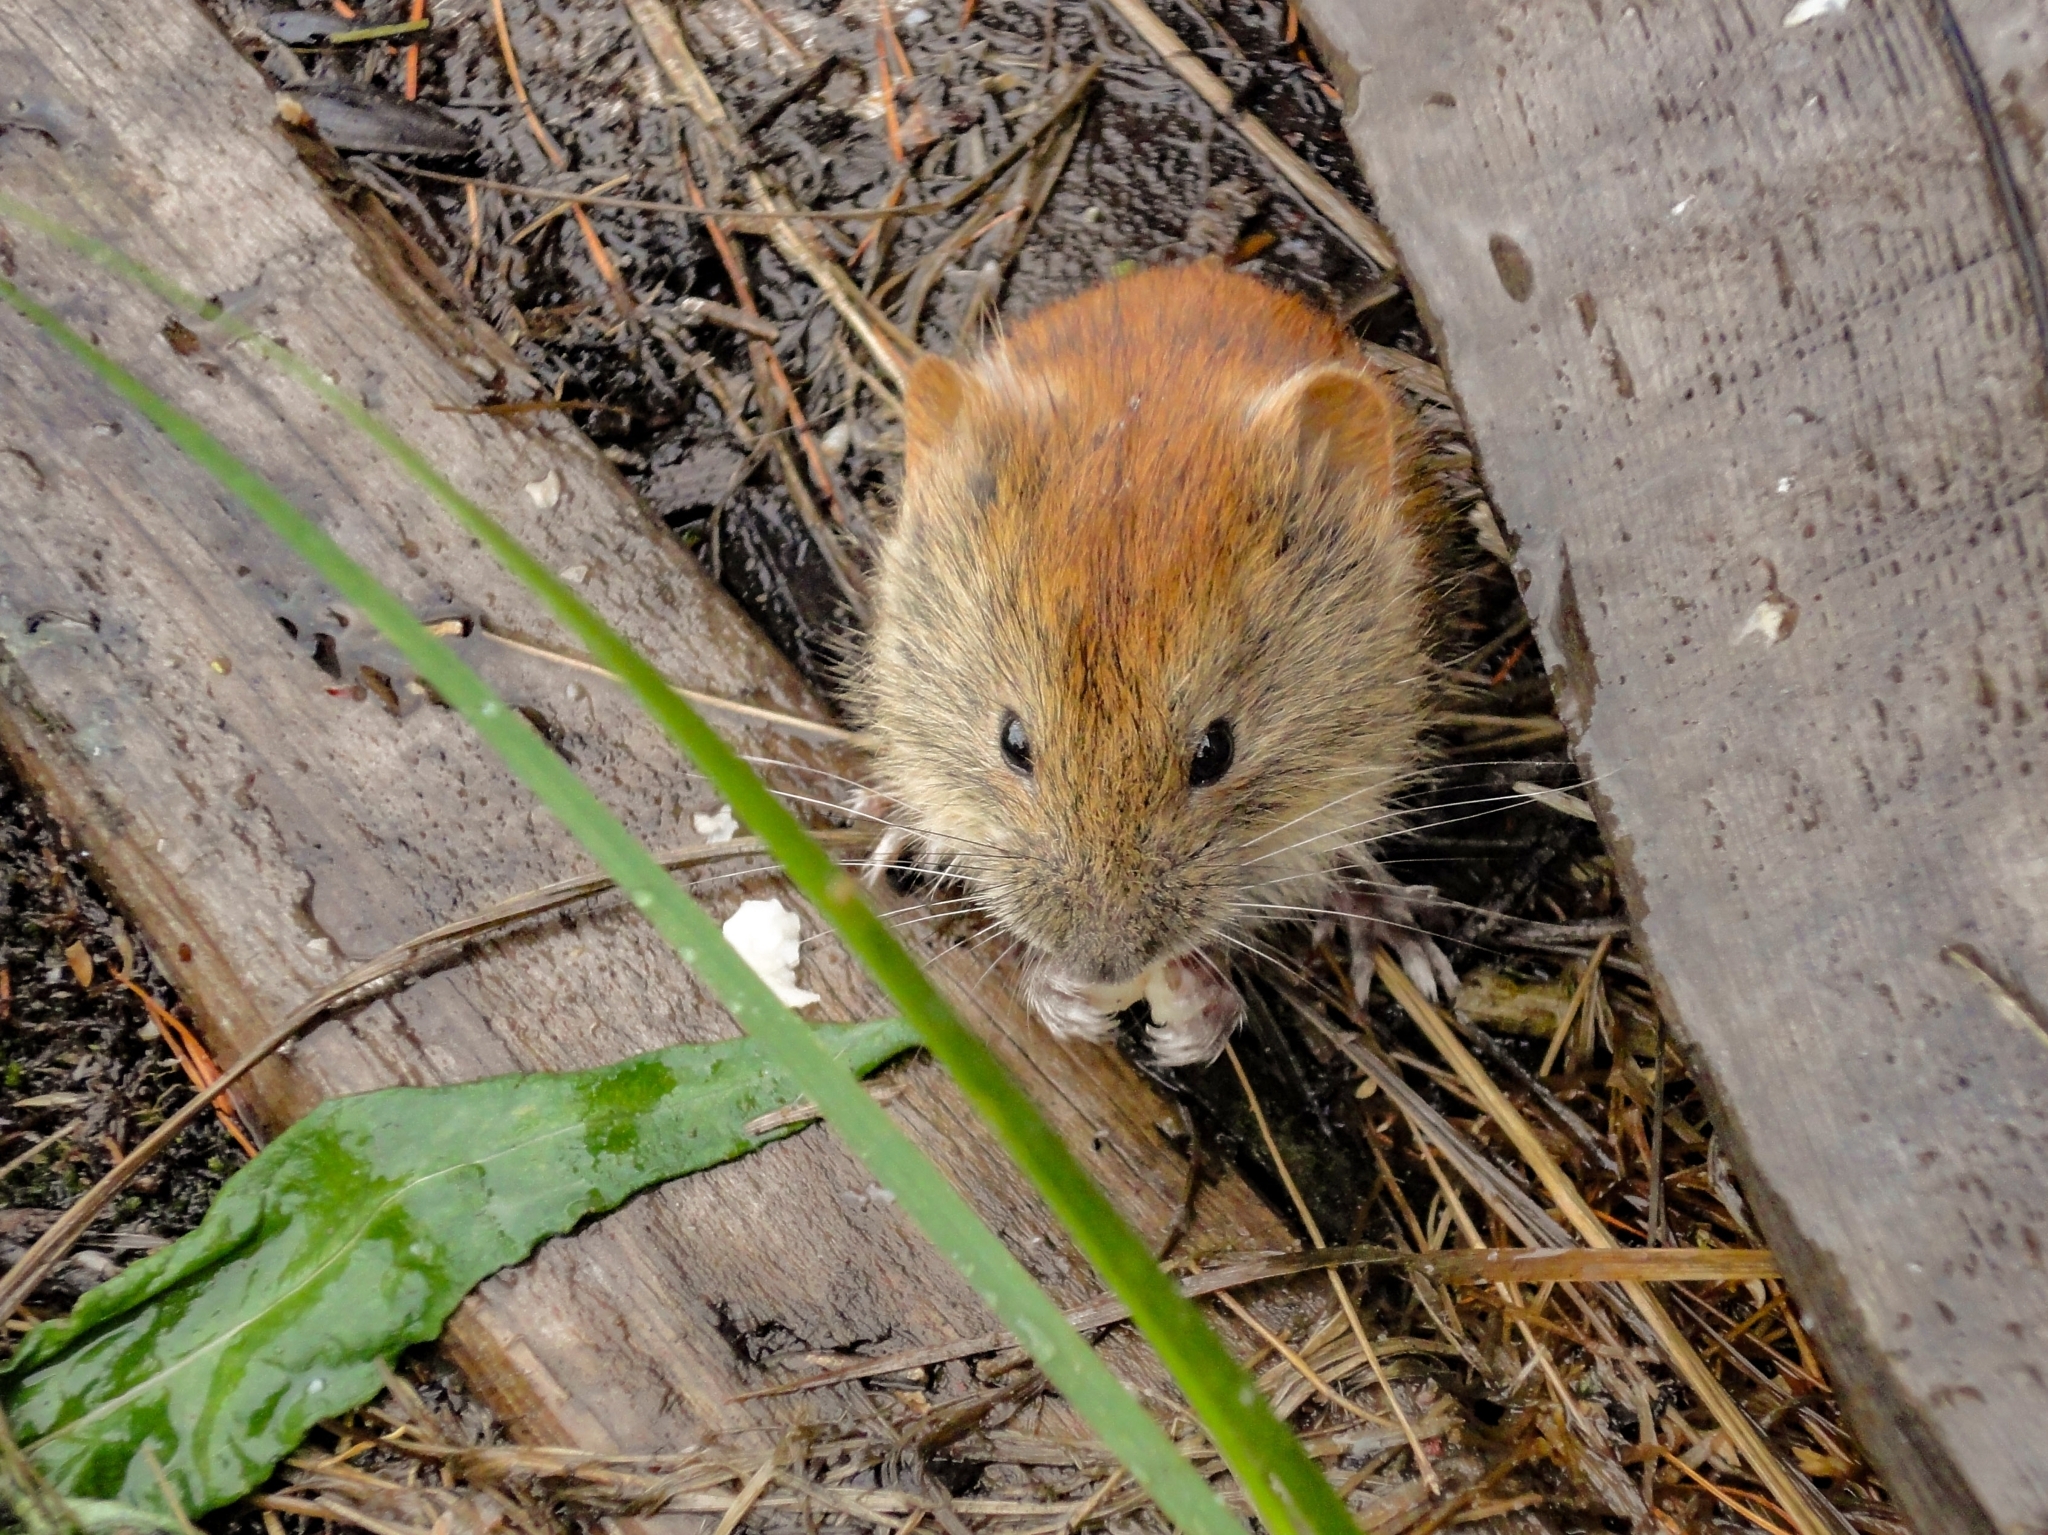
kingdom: Animalia
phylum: Chordata
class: Mammalia
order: Rodentia
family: Cricetidae
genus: Myodes
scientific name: Myodes rutilus
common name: Northern red-backed vole
